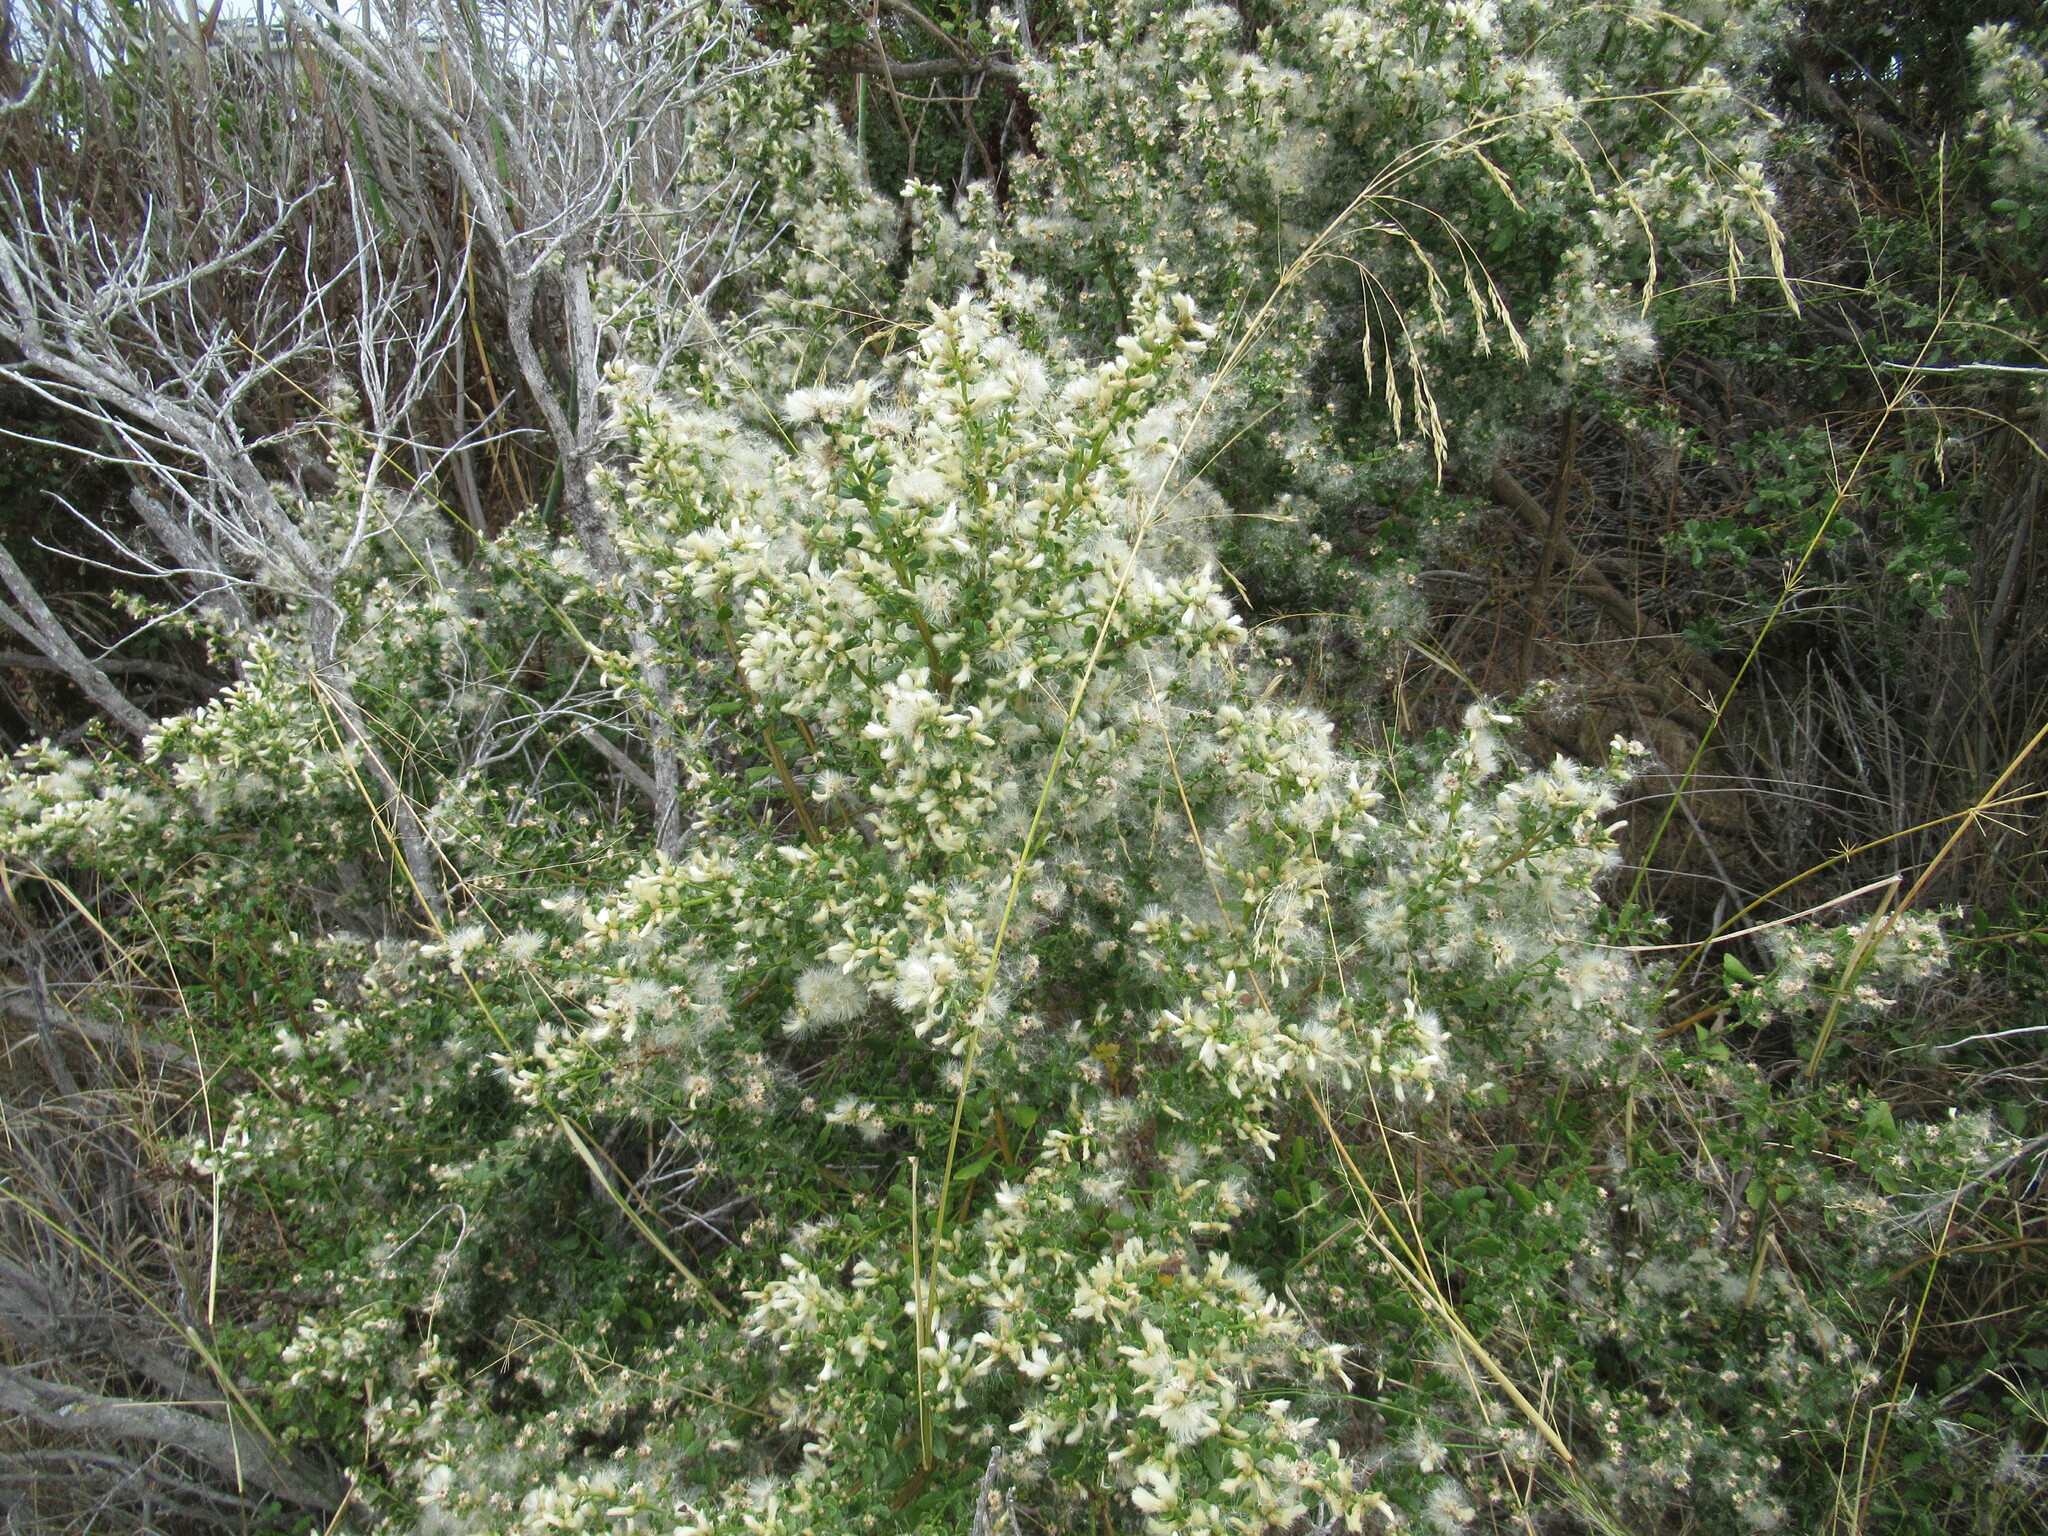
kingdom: Plantae
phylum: Tracheophyta
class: Magnoliopsida
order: Asterales
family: Asteraceae
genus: Baccharis
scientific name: Baccharis pilularis
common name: Coyotebrush
